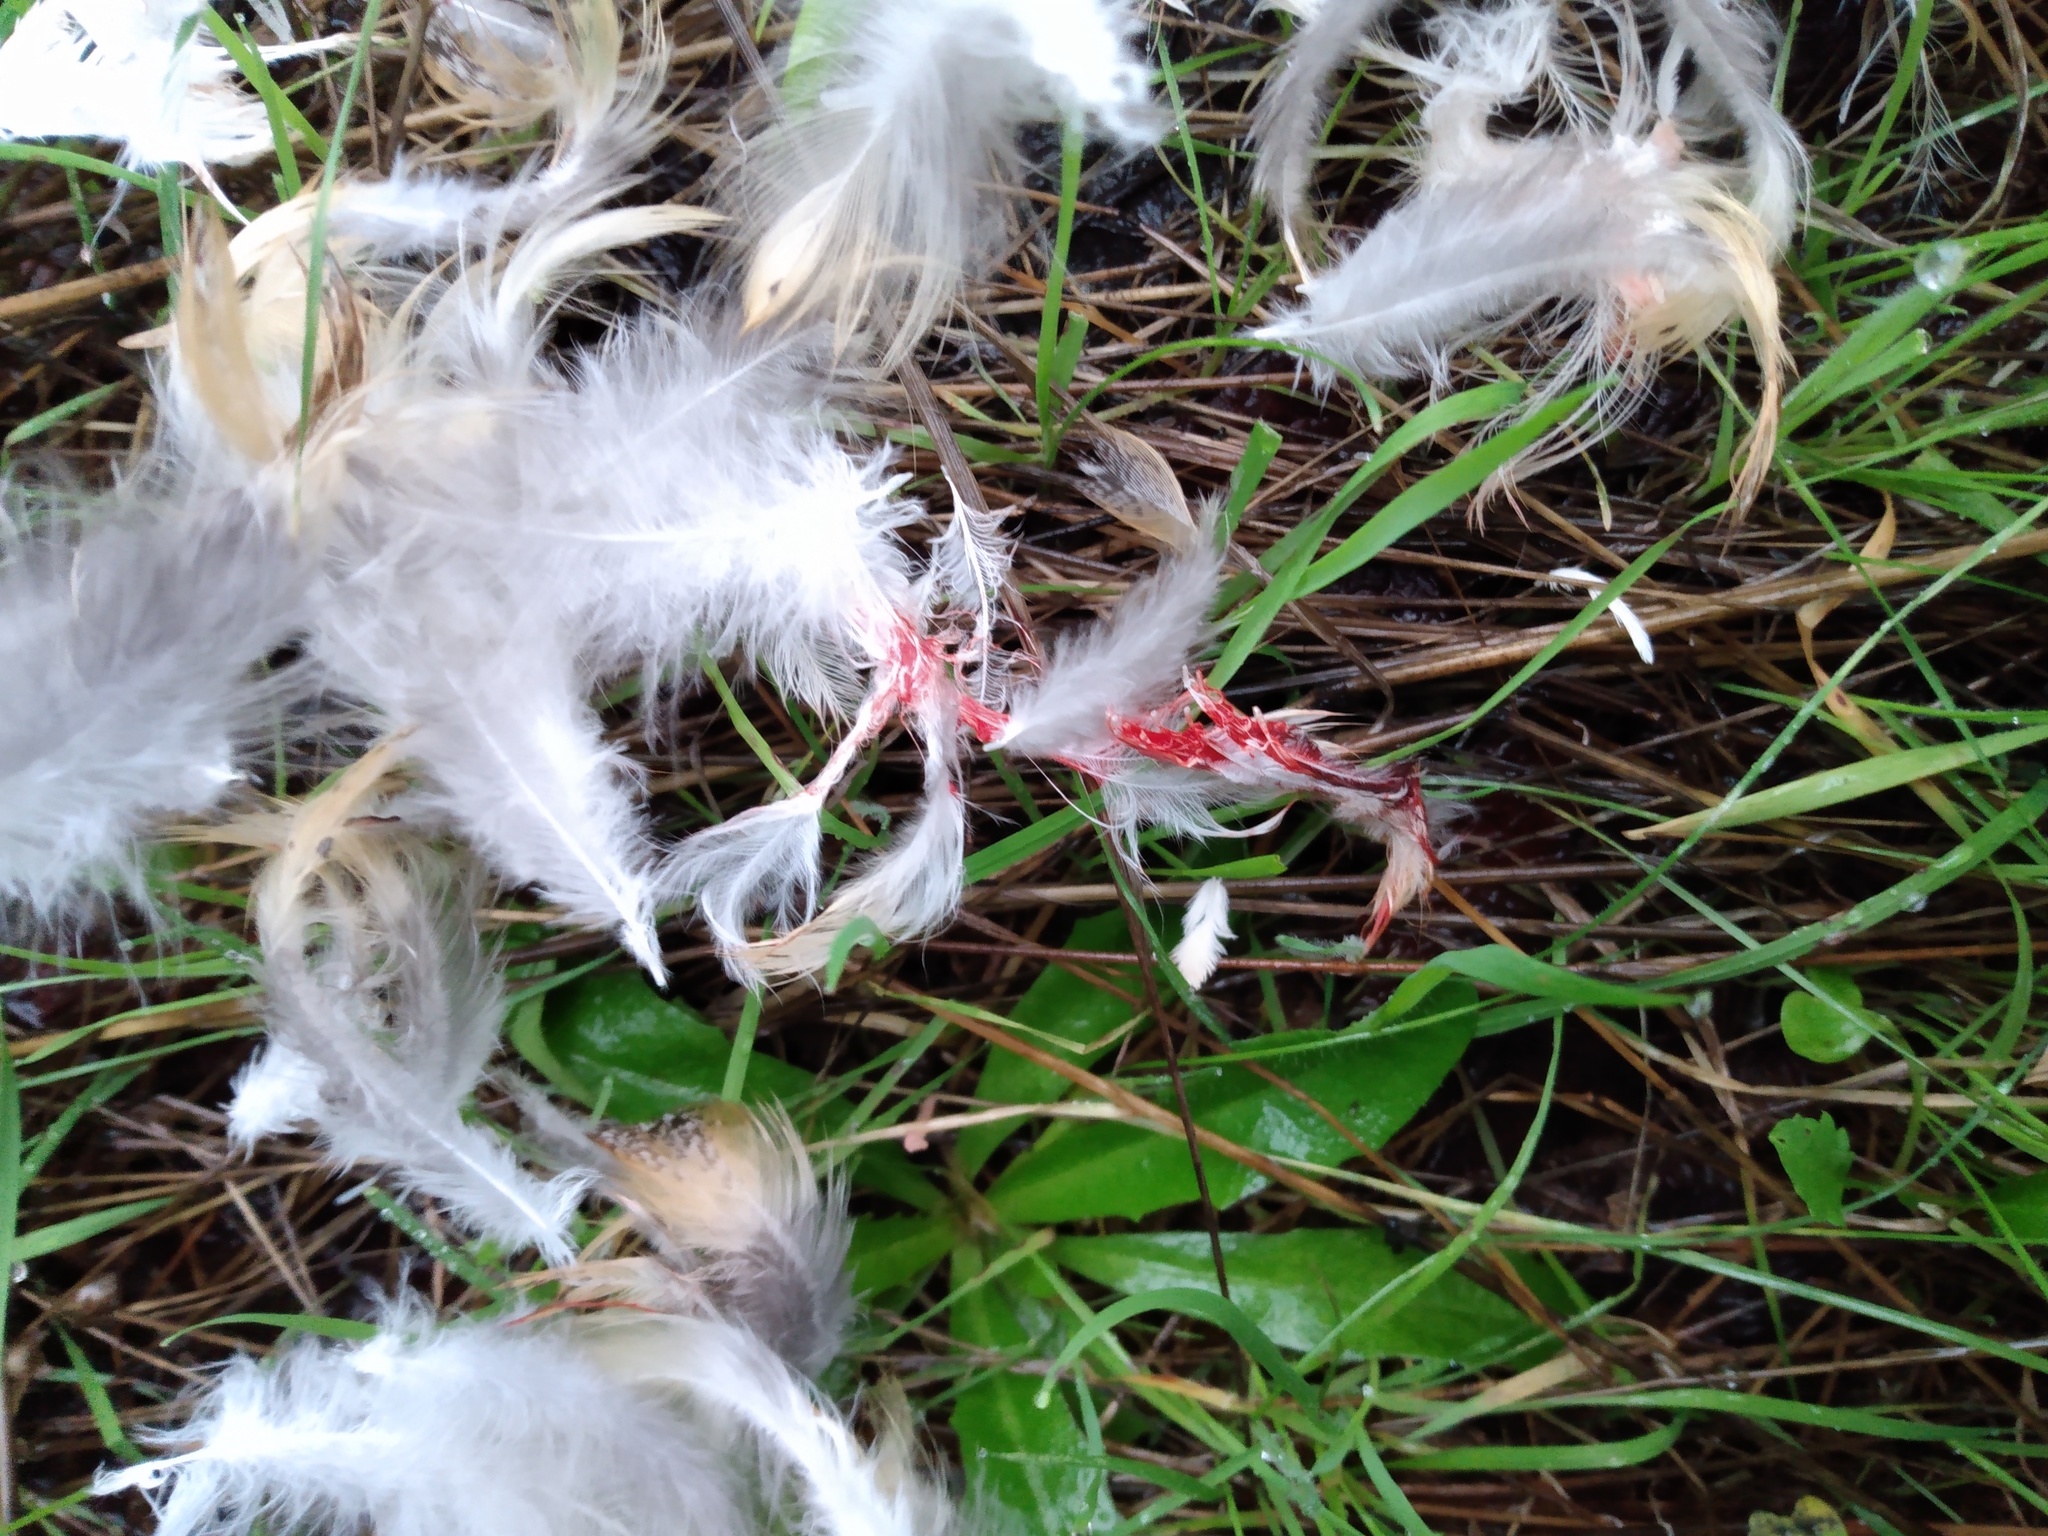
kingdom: Animalia
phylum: Chordata
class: Aves
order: Strigiformes
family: Tytonidae
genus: Tyto
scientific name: Tyto alba
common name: Barn owl
